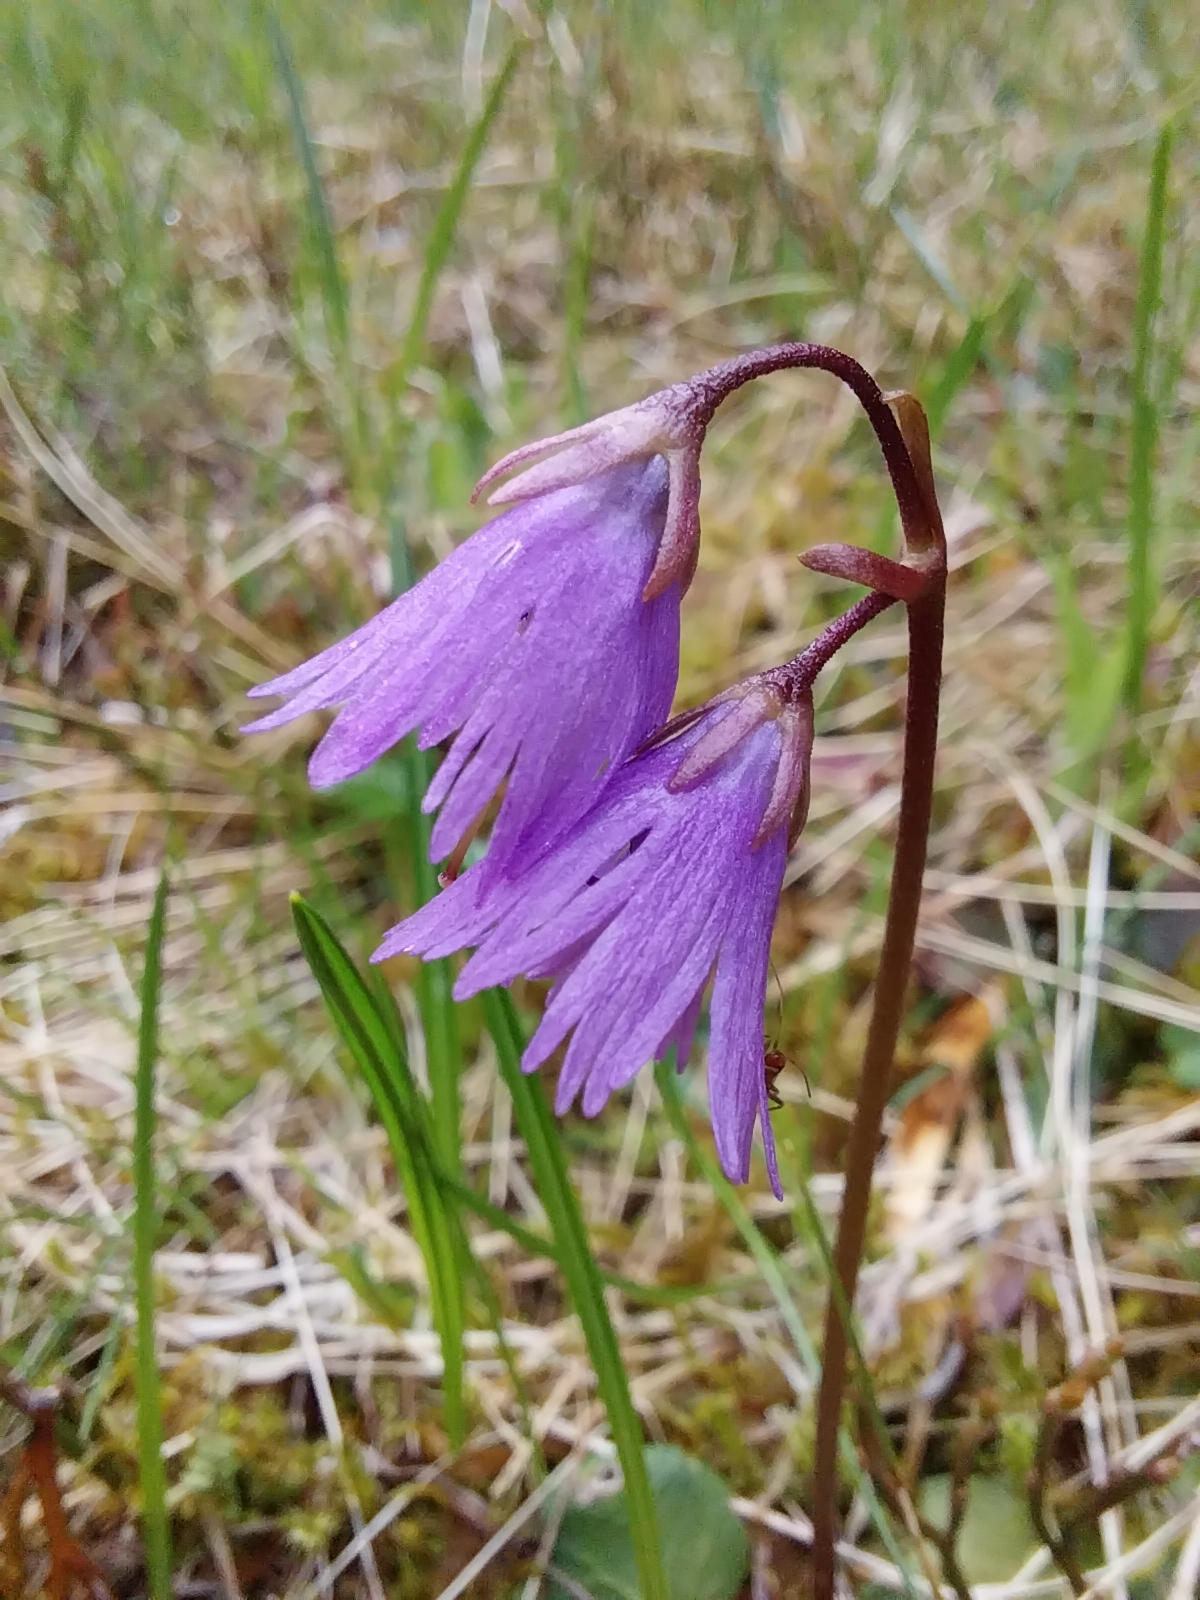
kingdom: Plantae
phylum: Tracheophyta
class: Magnoliopsida
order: Ericales
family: Primulaceae
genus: Soldanella
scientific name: Soldanella alpina
